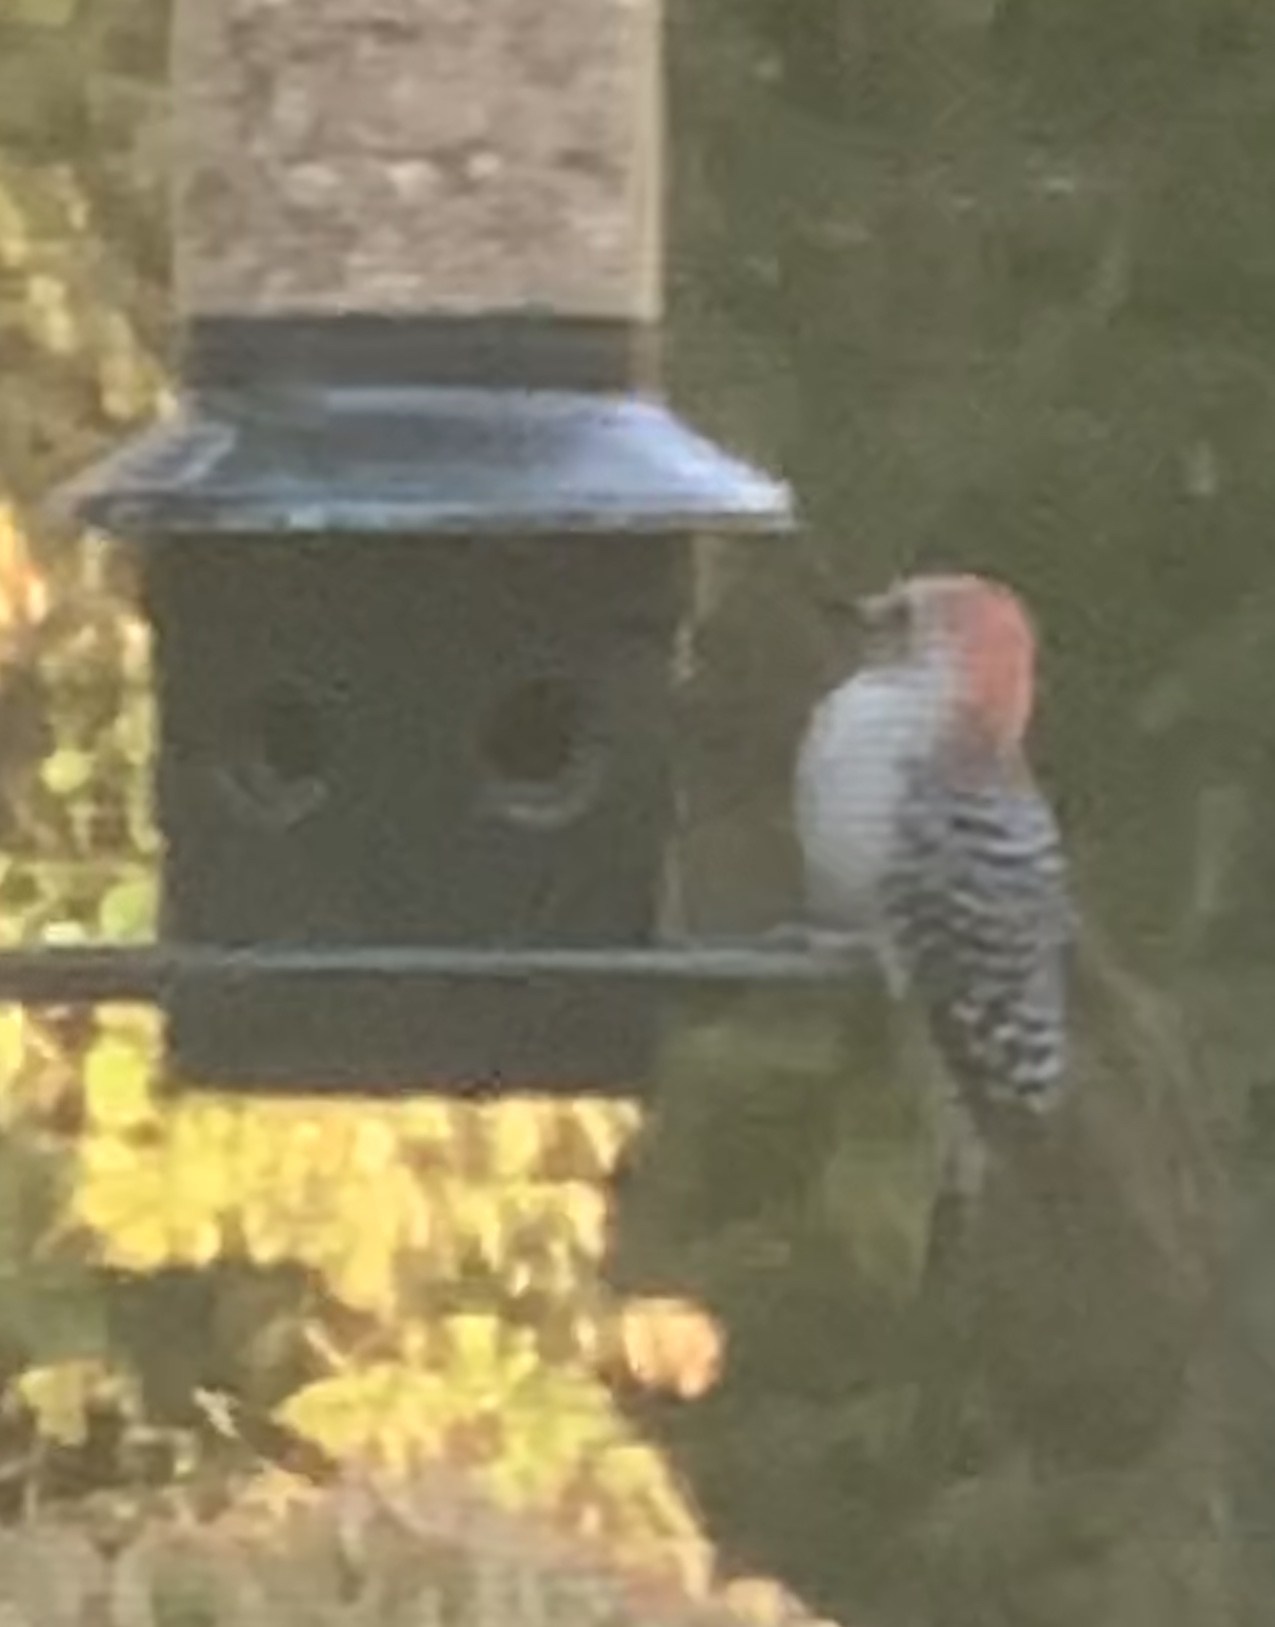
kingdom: Animalia
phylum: Chordata
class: Aves
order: Piciformes
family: Picidae
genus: Melanerpes
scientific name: Melanerpes carolinus
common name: Red-bellied woodpecker
